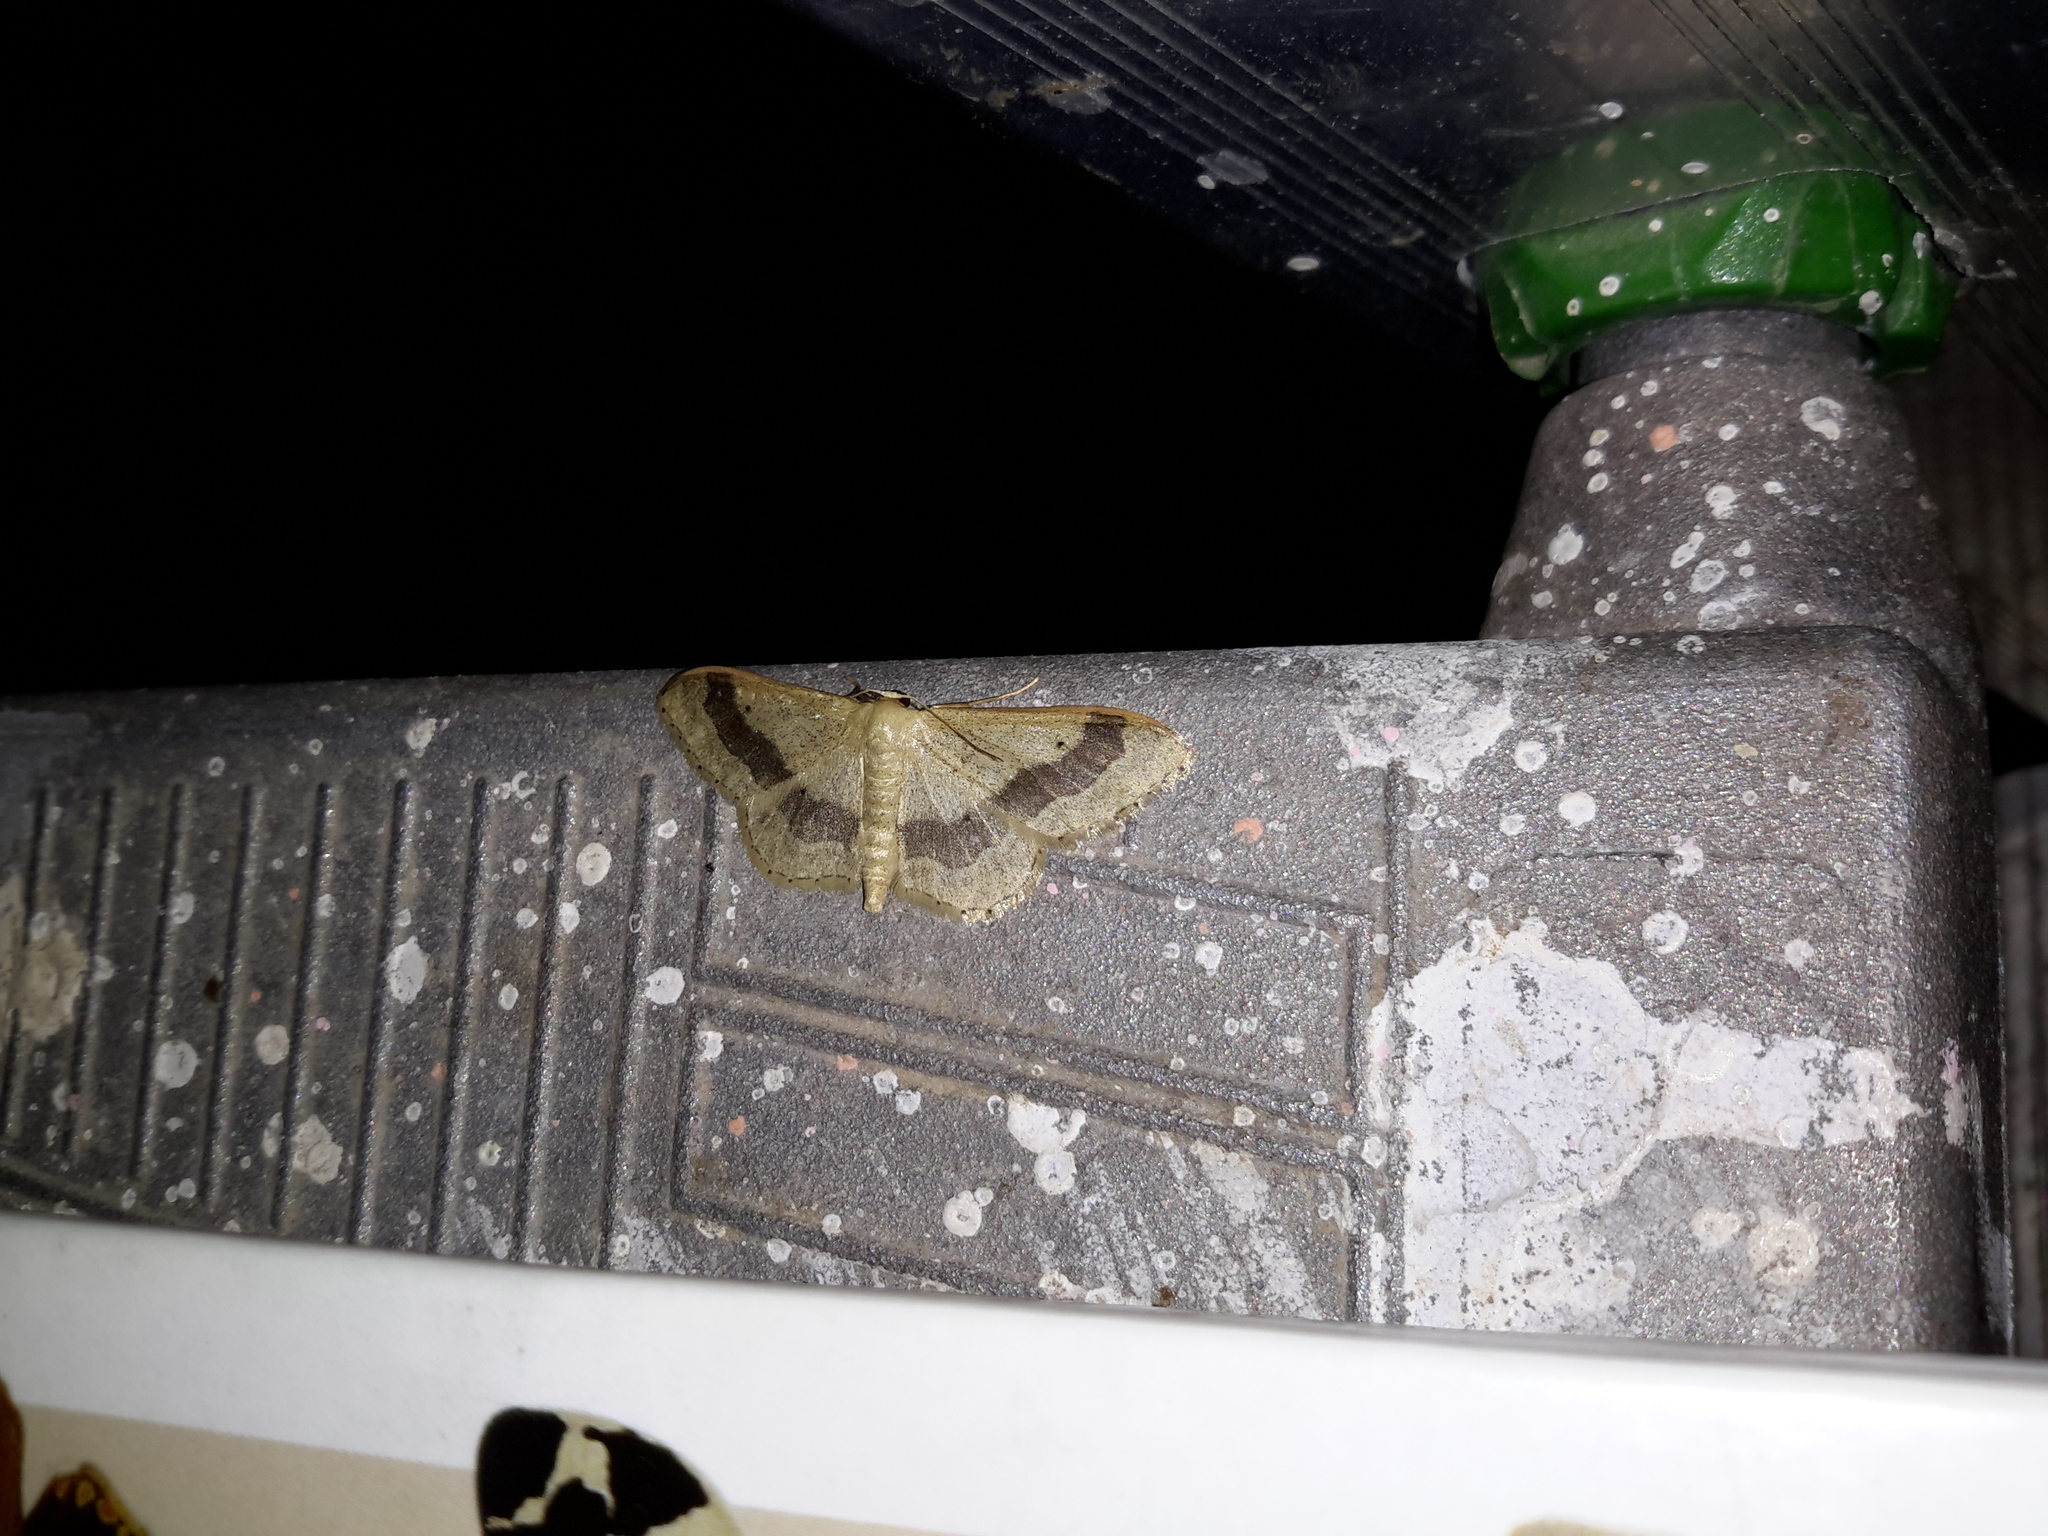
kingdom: Animalia
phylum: Arthropoda
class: Insecta
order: Lepidoptera
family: Geometridae
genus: Idaea
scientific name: Idaea aversata
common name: Riband wave
